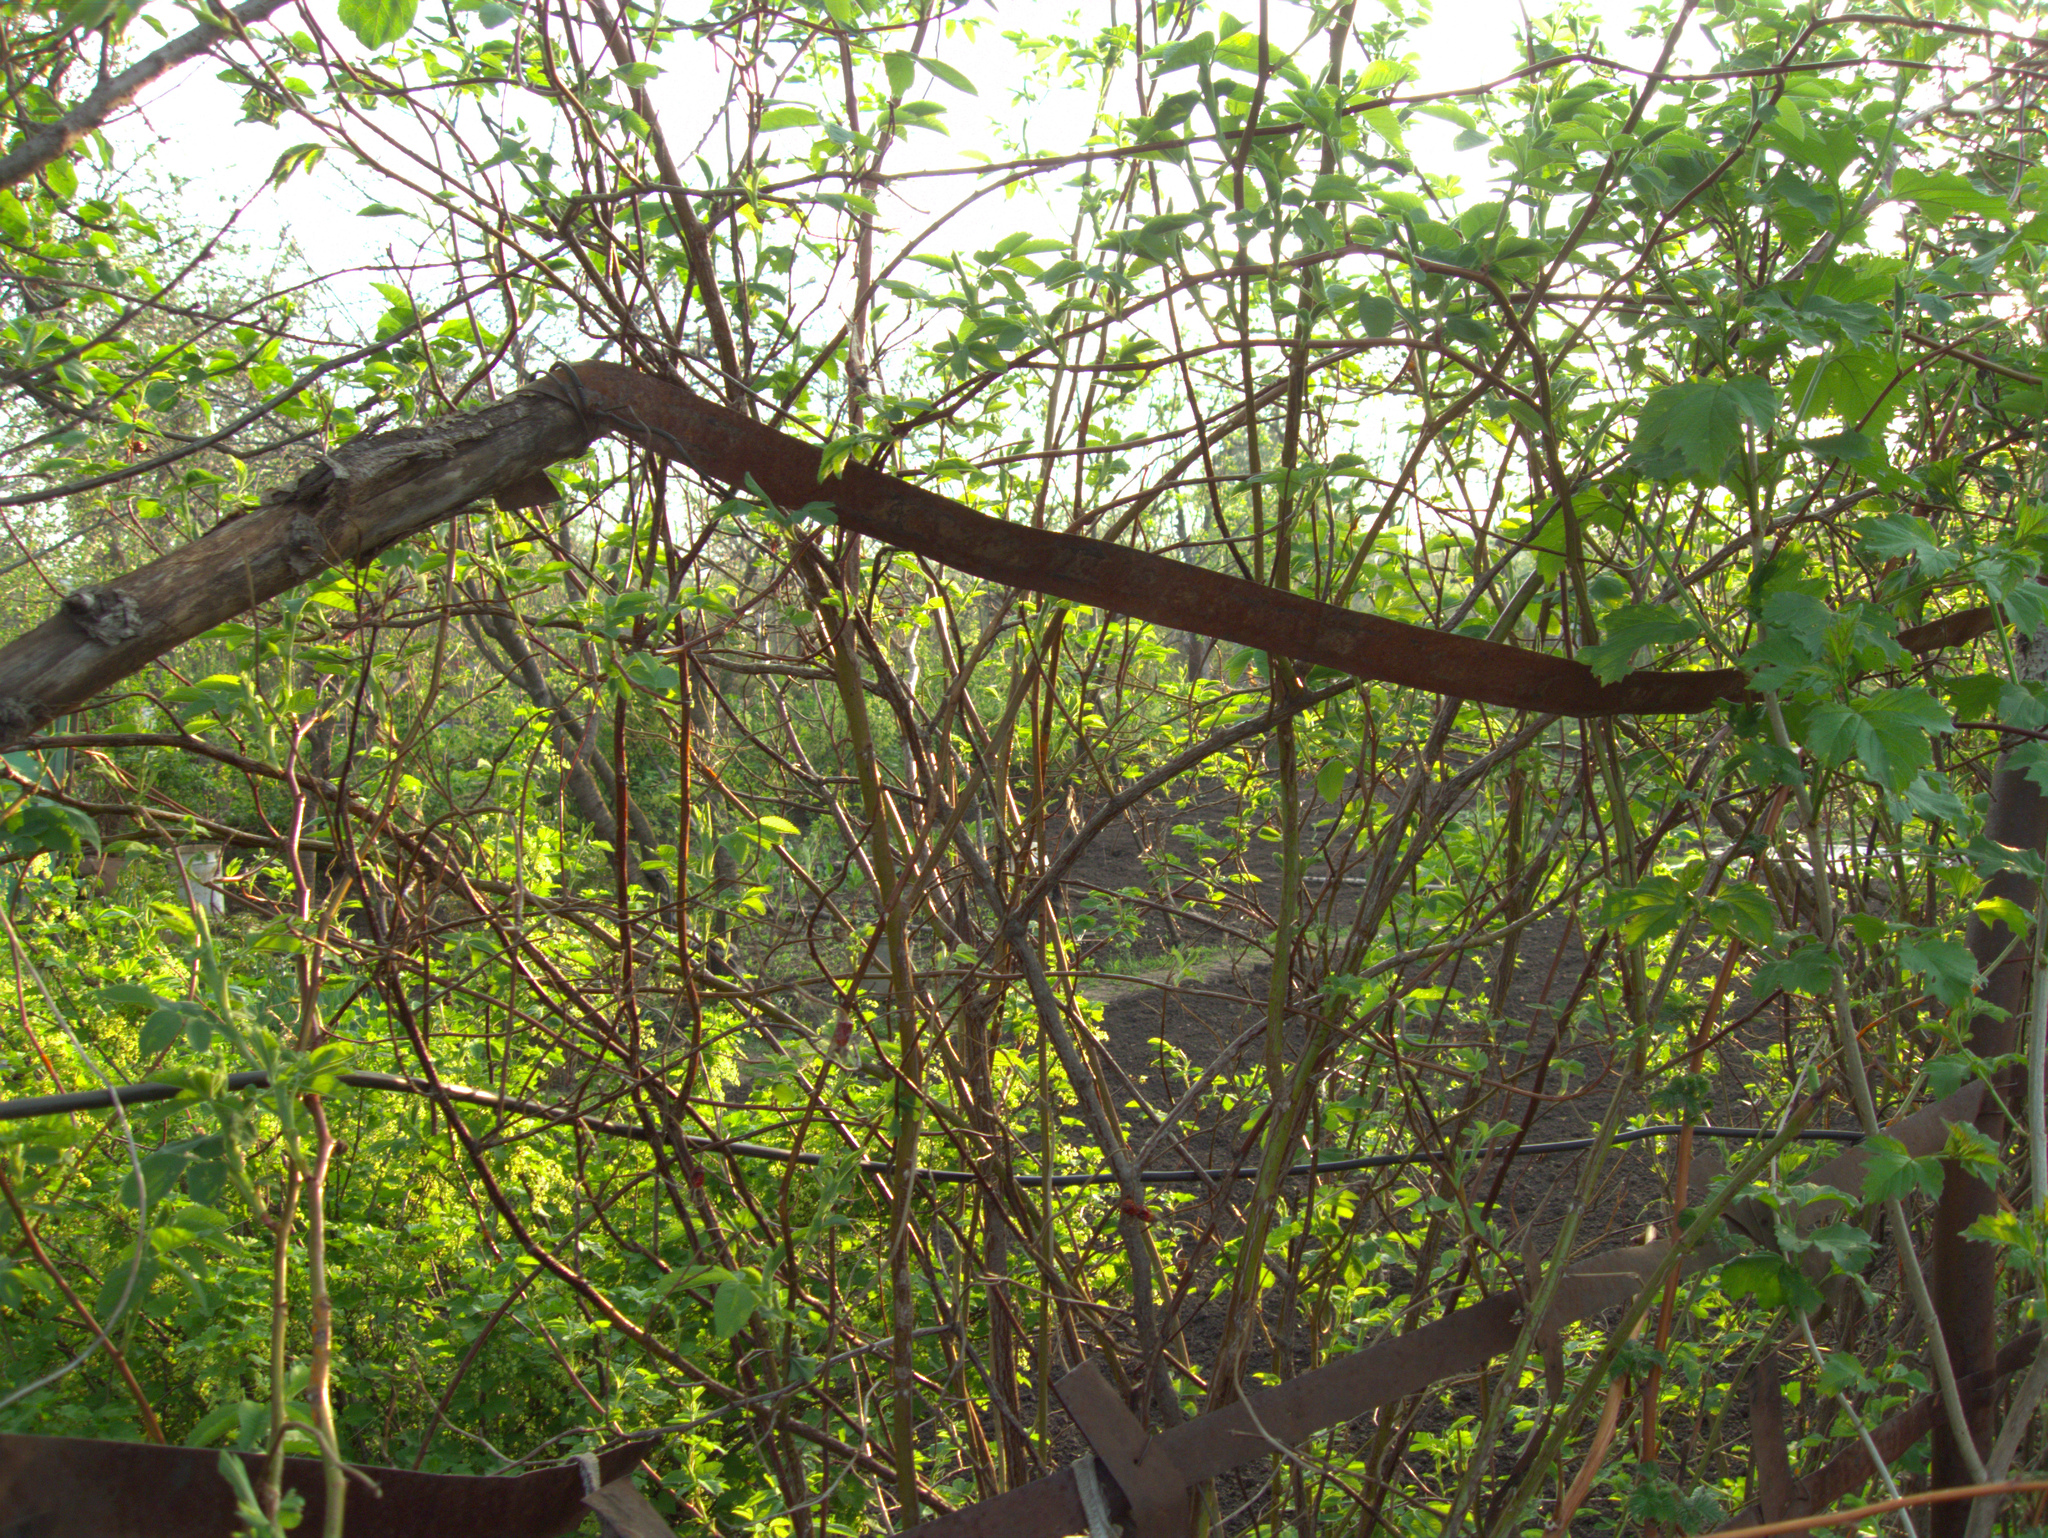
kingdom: Plantae
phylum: Tracheophyta
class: Magnoliopsida
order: Dipsacales
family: Viburnaceae
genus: Viburnum
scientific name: Viburnum opulus
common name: Guelder-rose
